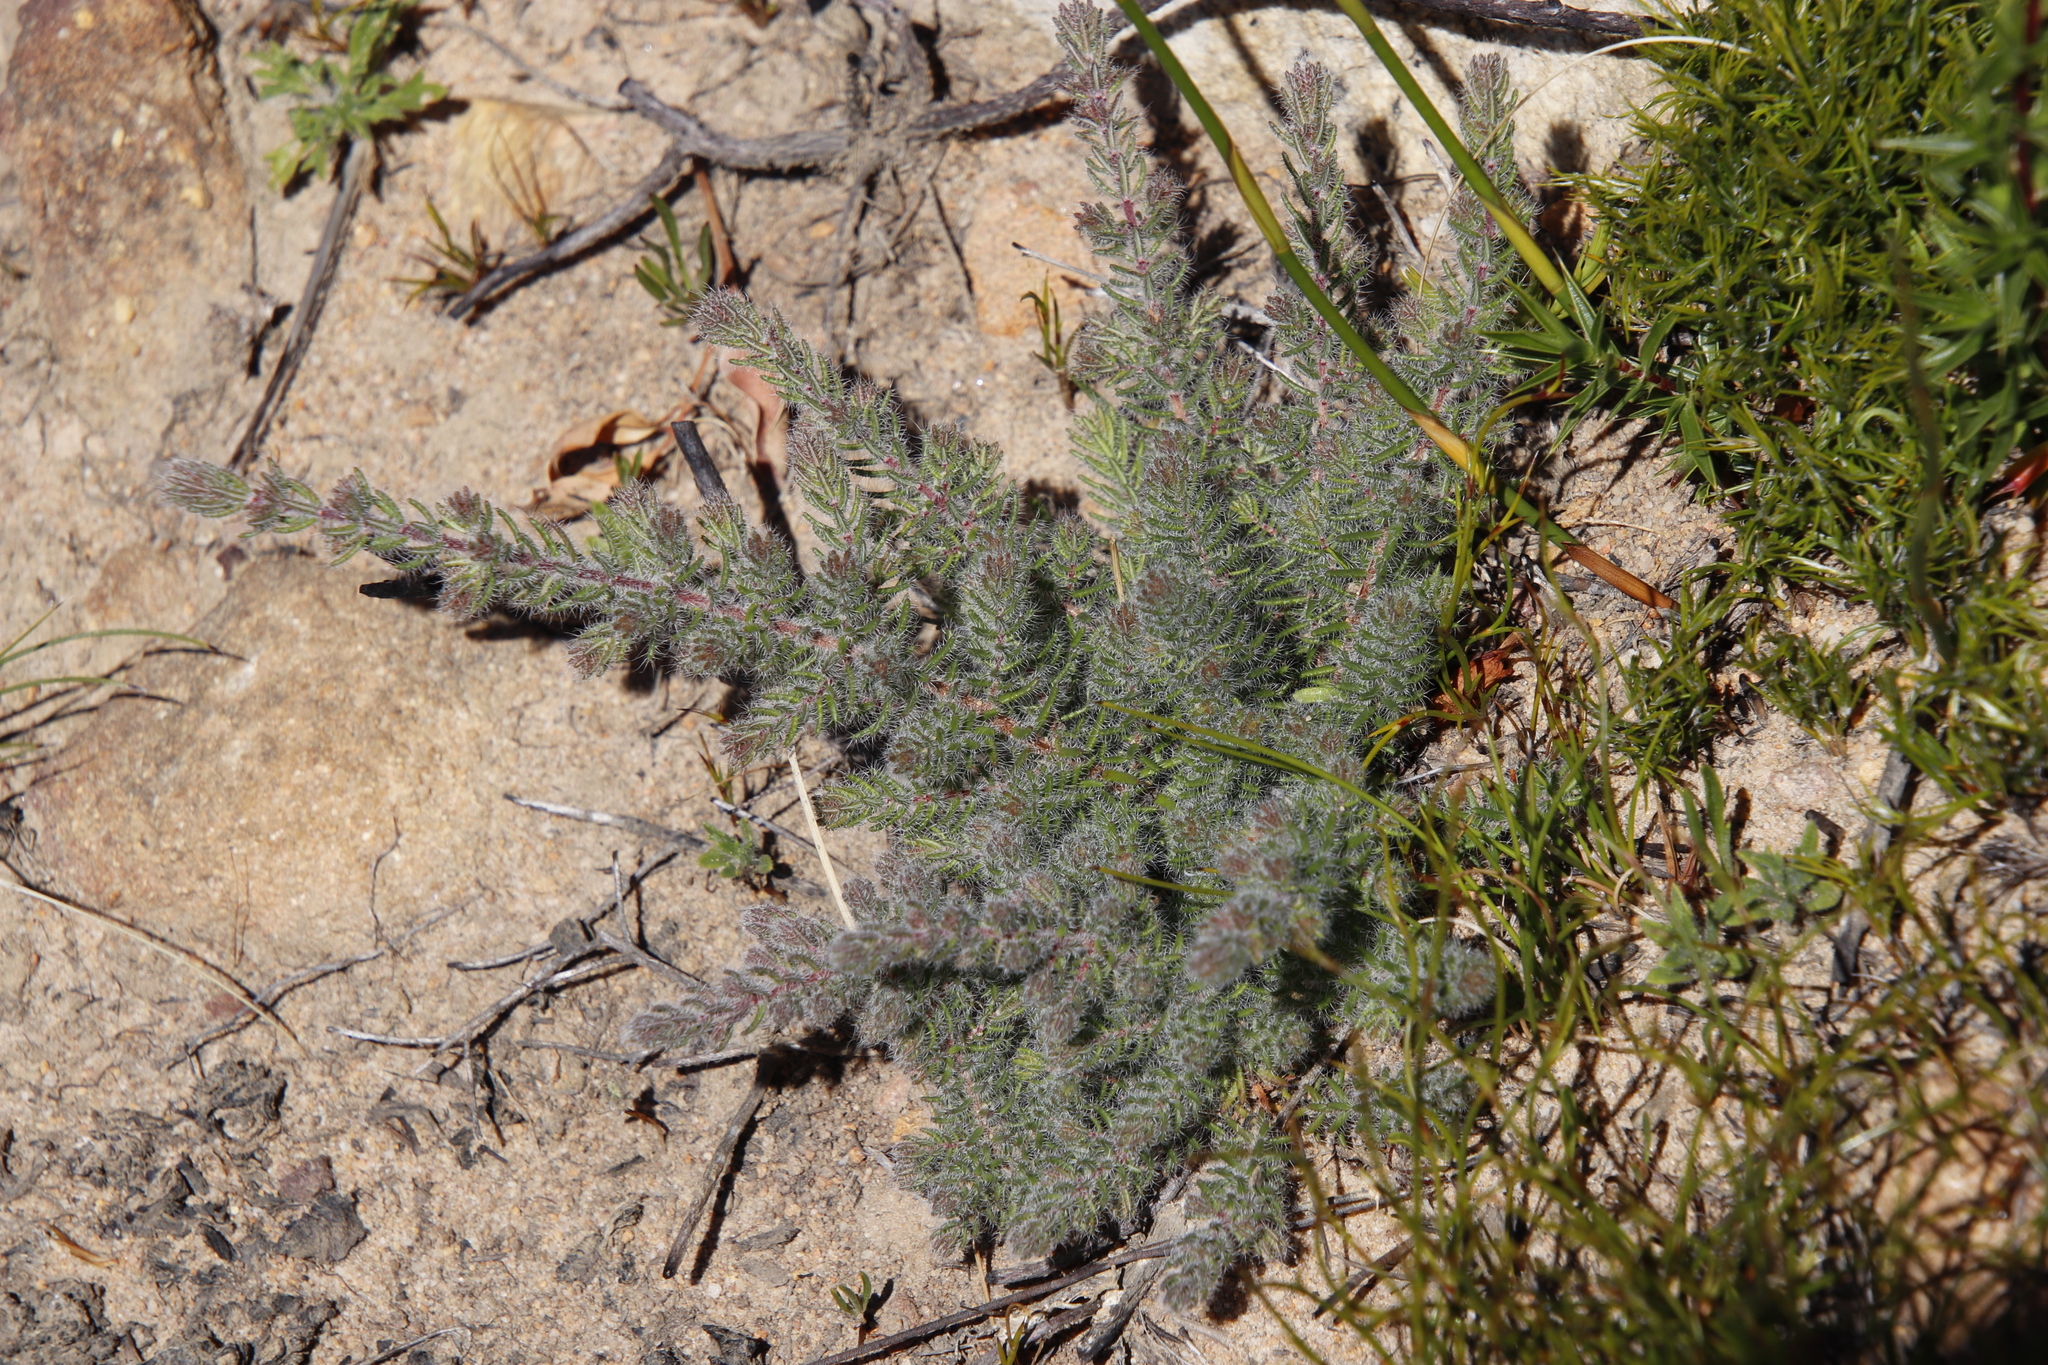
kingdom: Plantae
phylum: Tracheophyta
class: Magnoliopsida
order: Ericales
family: Ericaceae
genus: Erica
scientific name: Erica totta
